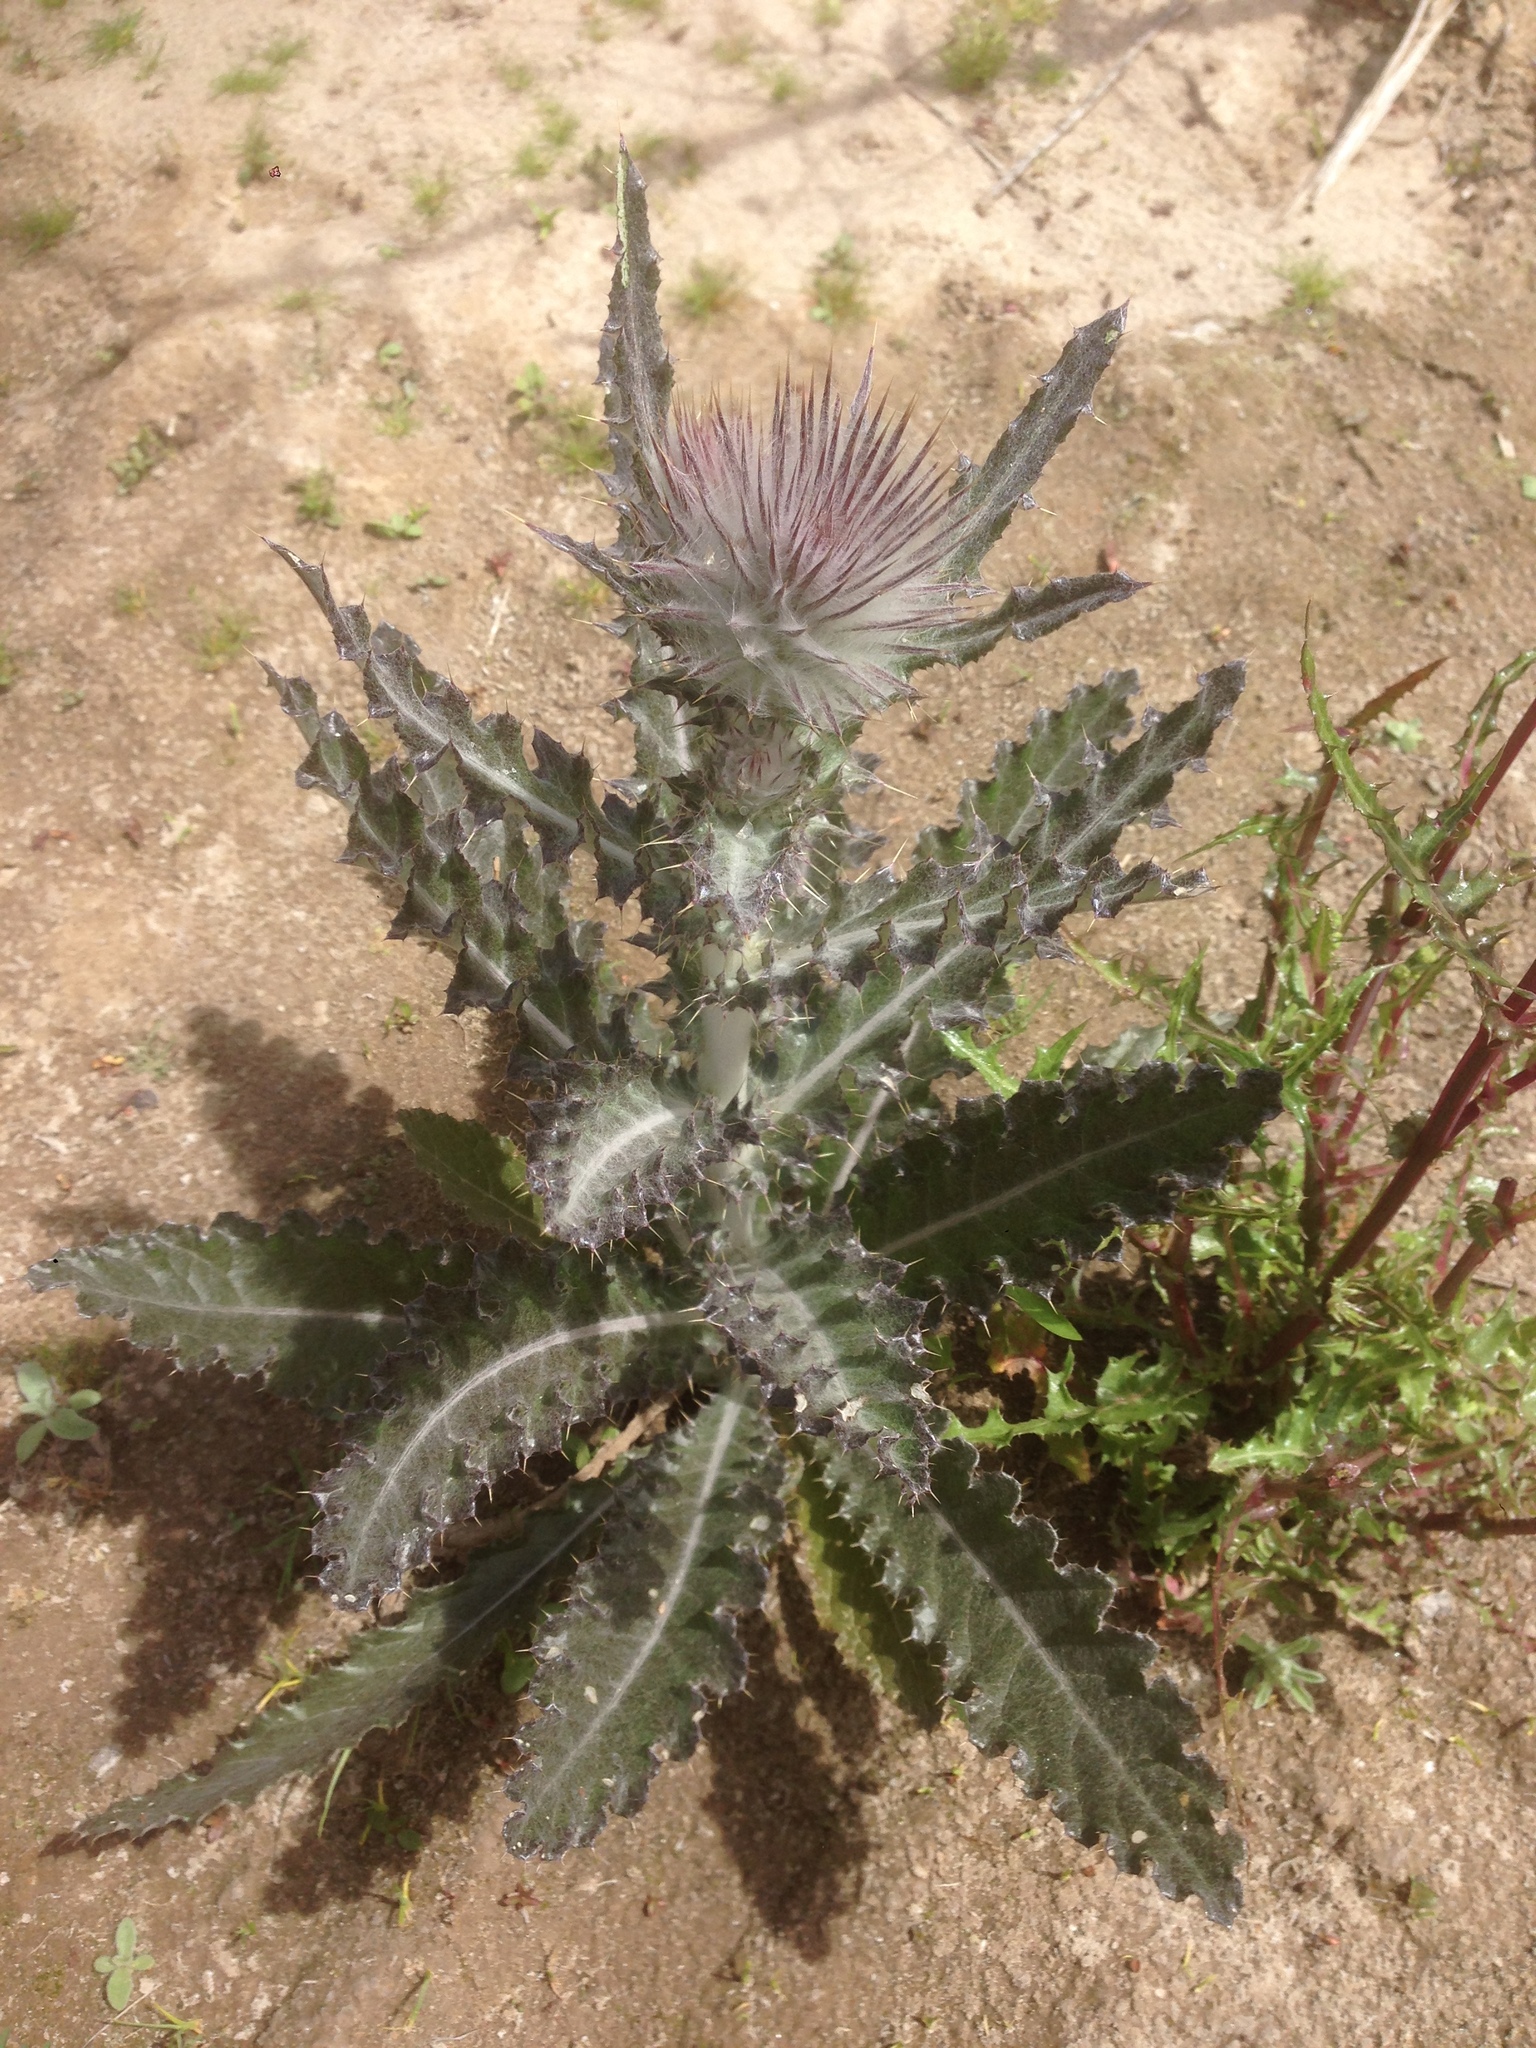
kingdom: Plantae
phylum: Tracheophyta
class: Magnoliopsida
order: Asterales
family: Asteraceae
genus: Cirsium
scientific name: Cirsium occidentale
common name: Western thistle
